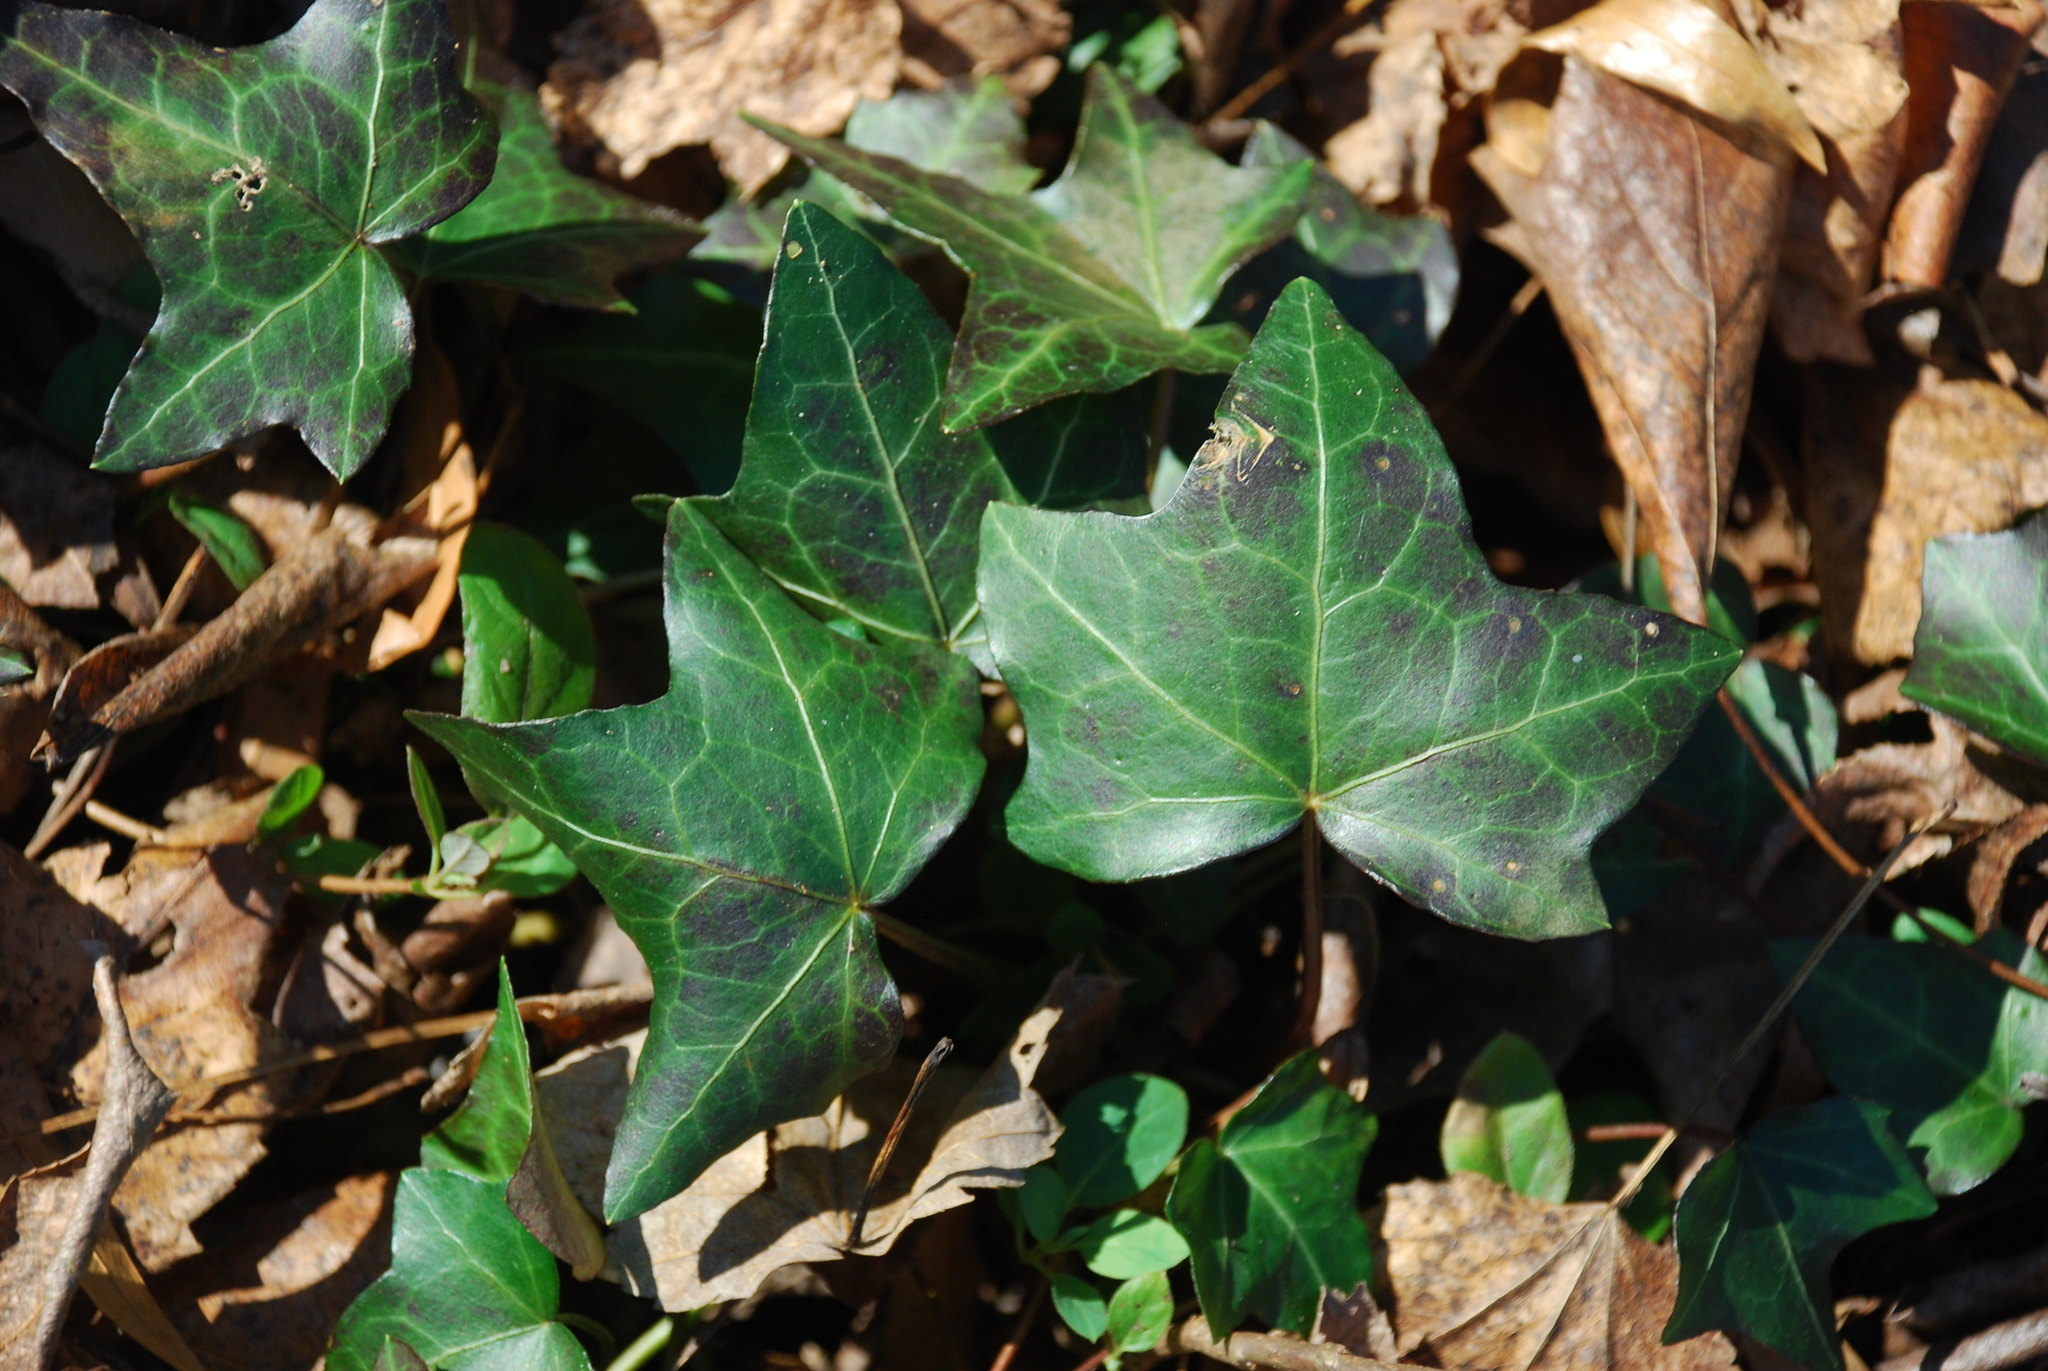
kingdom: Plantae
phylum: Tracheophyta
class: Magnoliopsida
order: Apiales
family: Araliaceae
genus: Hedera
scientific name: Hedera hibernica
